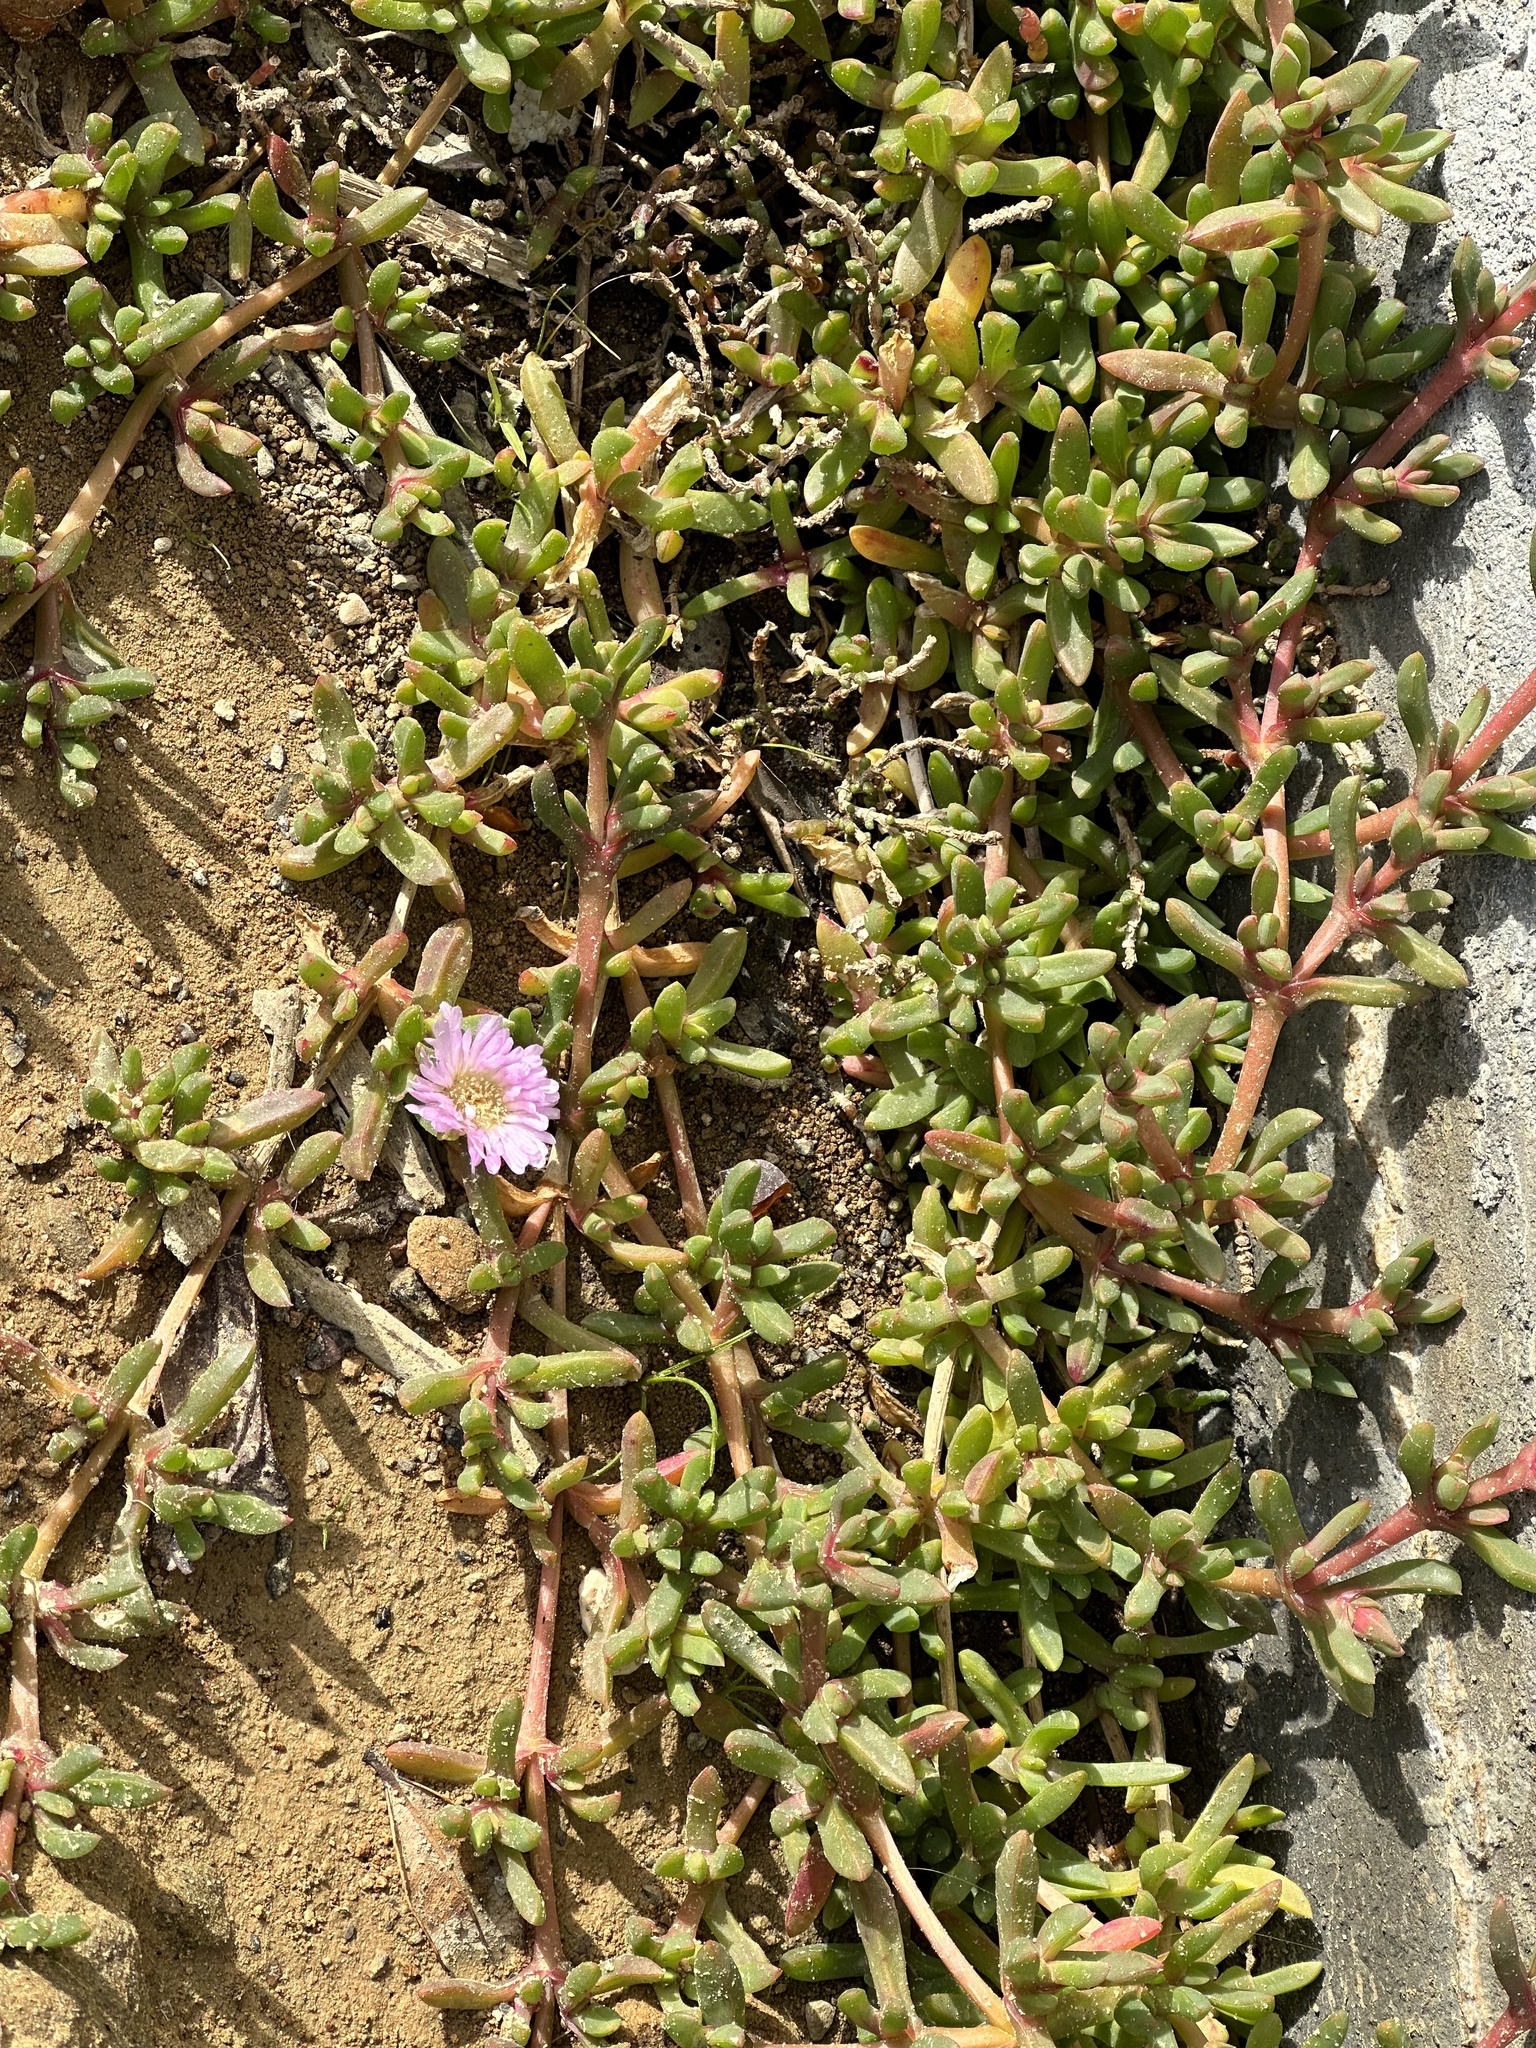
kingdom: Plantae
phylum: Tracheophyta
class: Magnoliopsida
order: Caryophyllales
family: Aizoaceae
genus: Disphyma
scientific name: Disphyma australe
